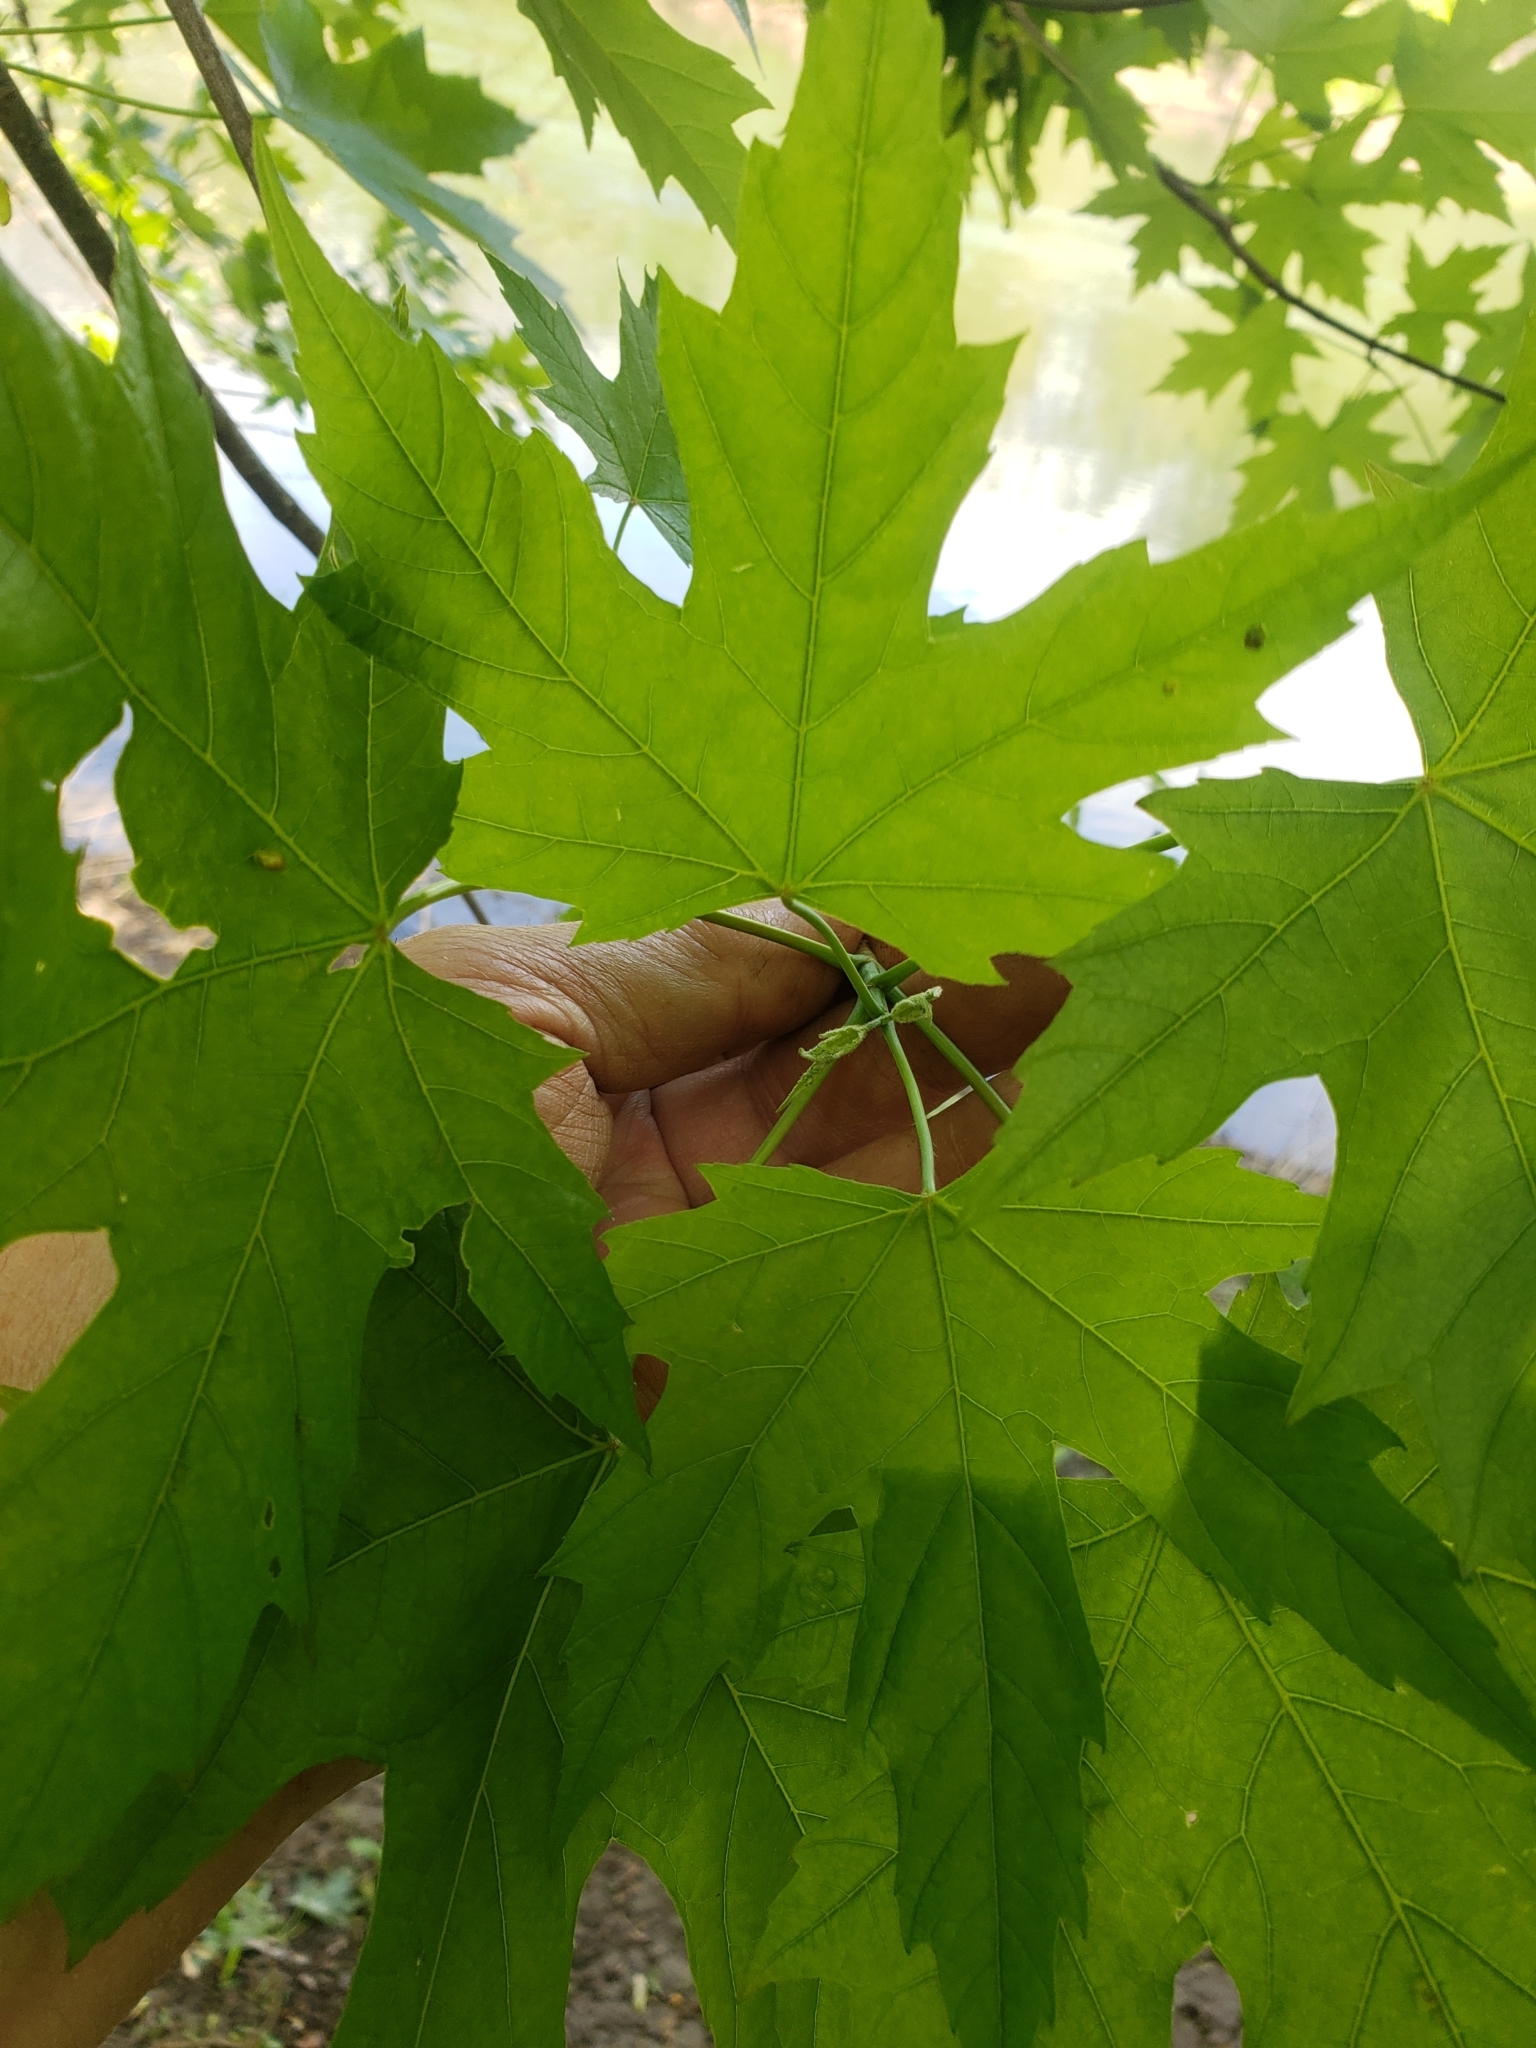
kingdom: Animalia
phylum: Arthropoda
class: Arachnida
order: Trombidiformes
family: Eriophyidae
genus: Vasates
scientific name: Vasates quadripedes
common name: Maple bladder gall mite
